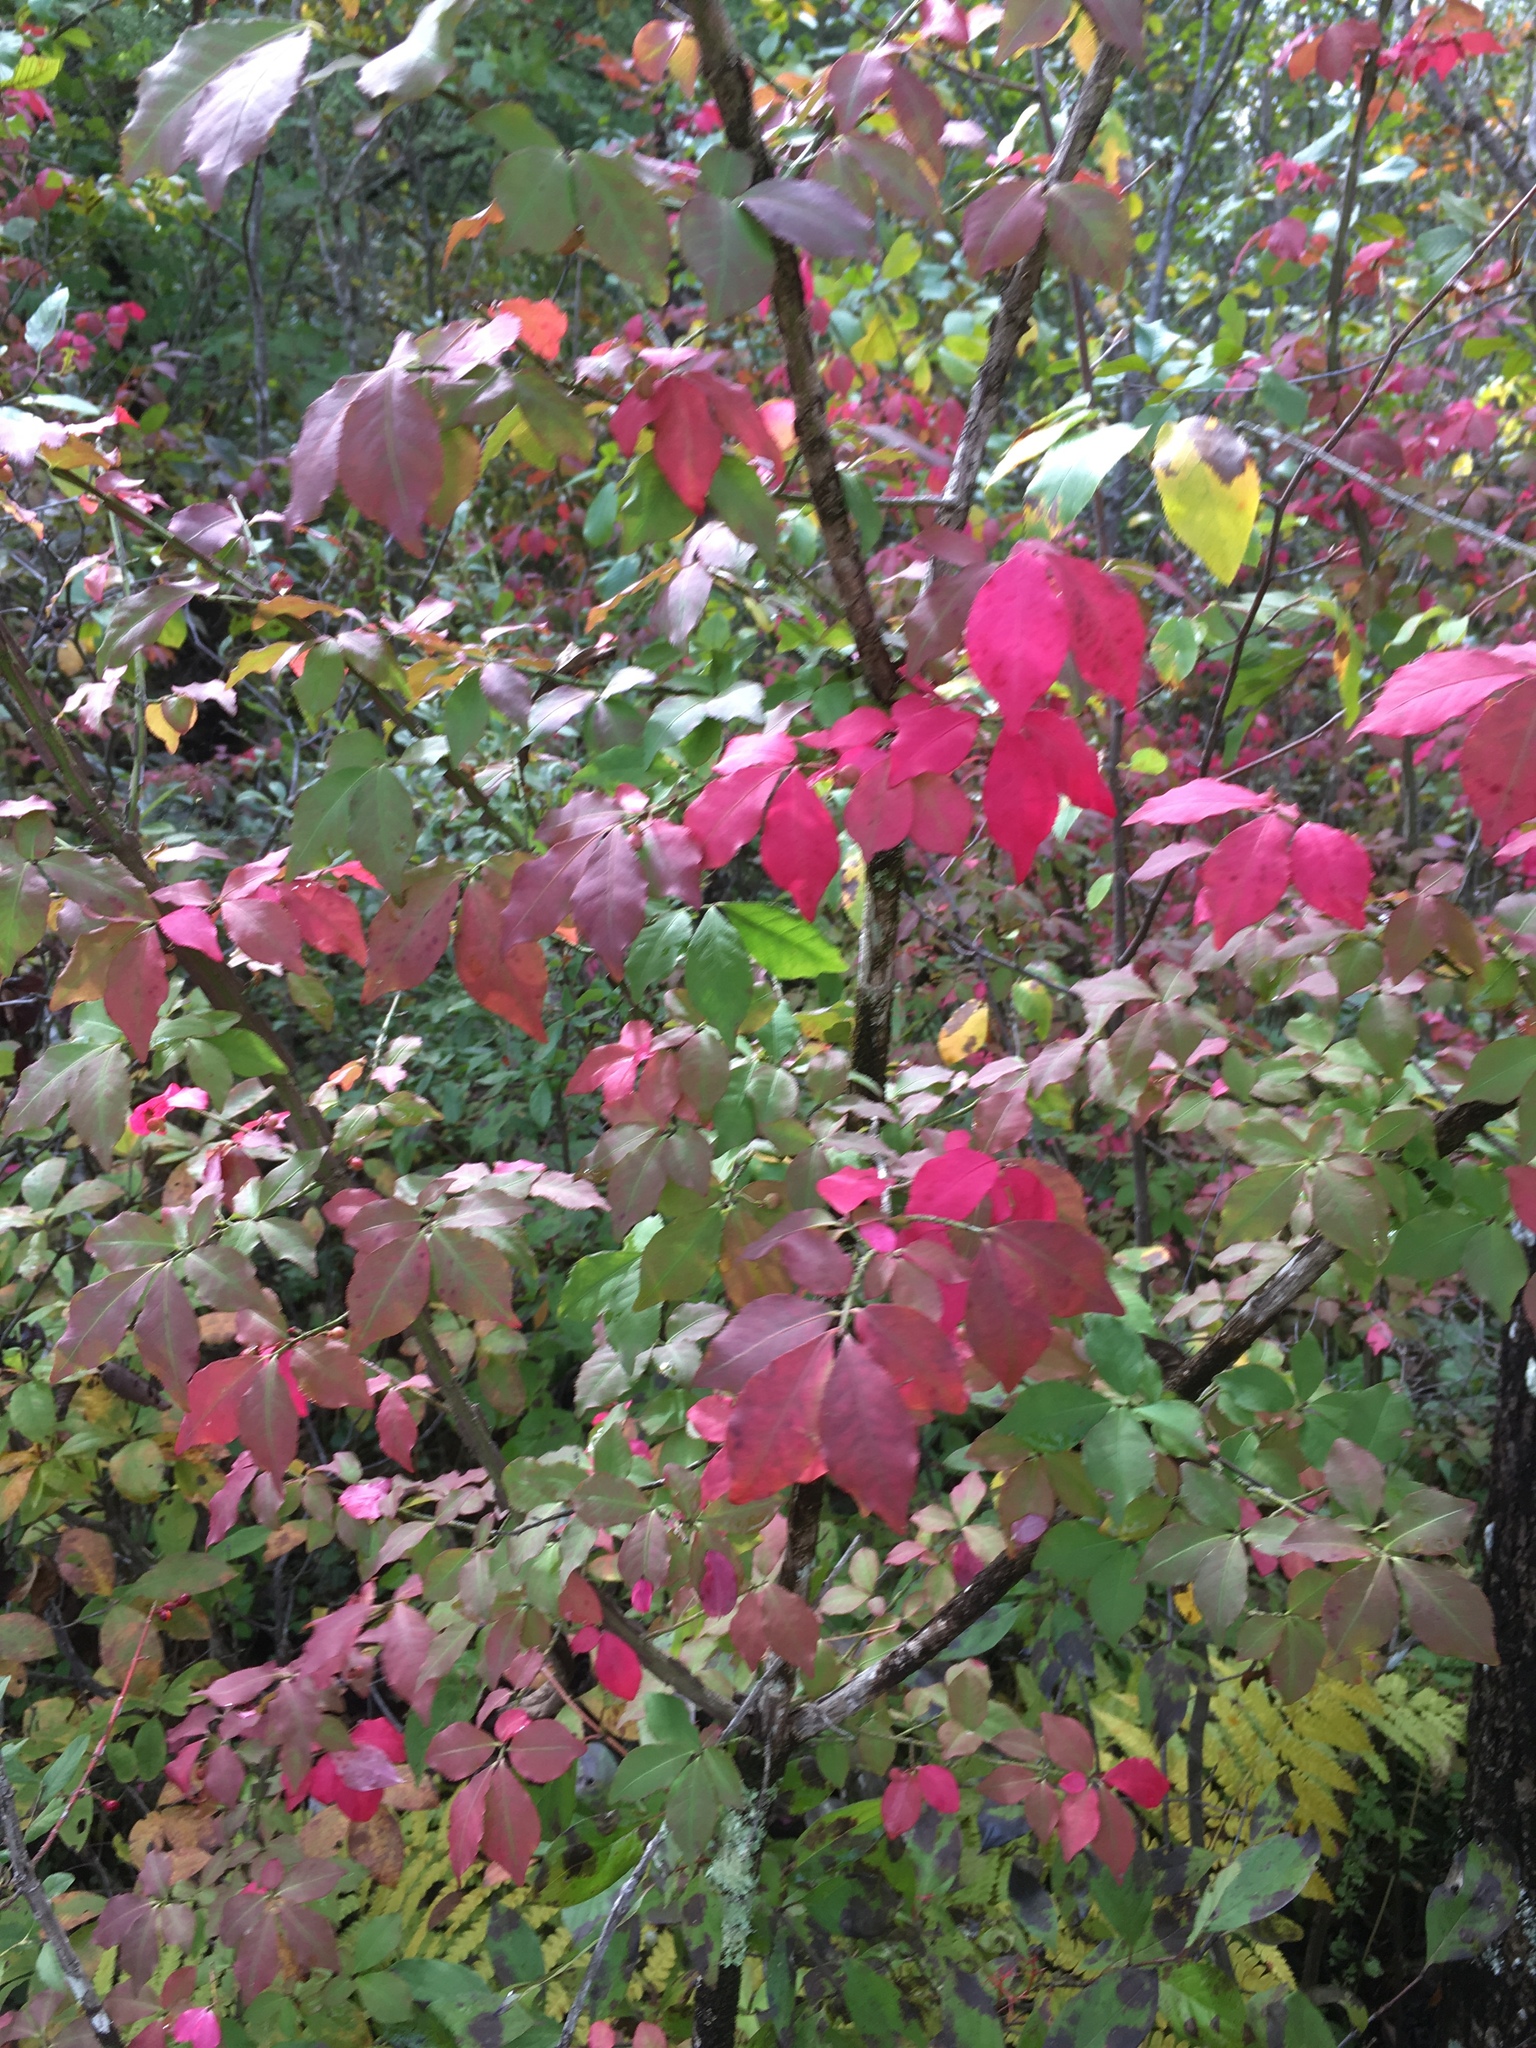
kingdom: Plantae
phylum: Tracheophyta
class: Magnoliopsida
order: Celastrales
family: Celastraceae
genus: Euonymus
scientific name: Euonymus alatus
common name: Winged euonymus
